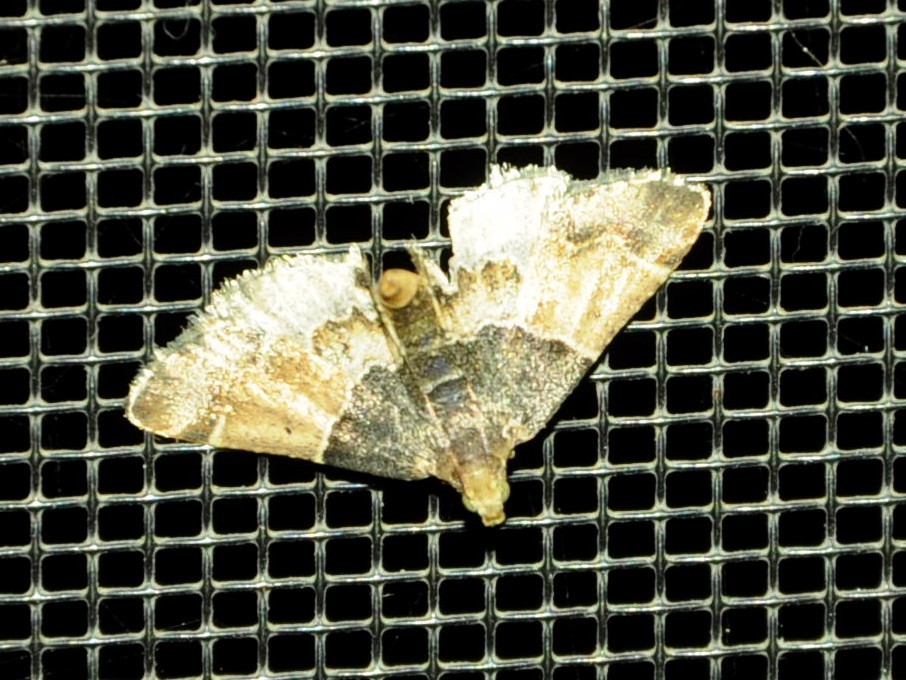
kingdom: Animalia
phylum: Arthropoda
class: Insecta
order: Lepidoptera
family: Pyralidae
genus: Pyralis
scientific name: Pyralis pictalis
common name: Painted meal moth
